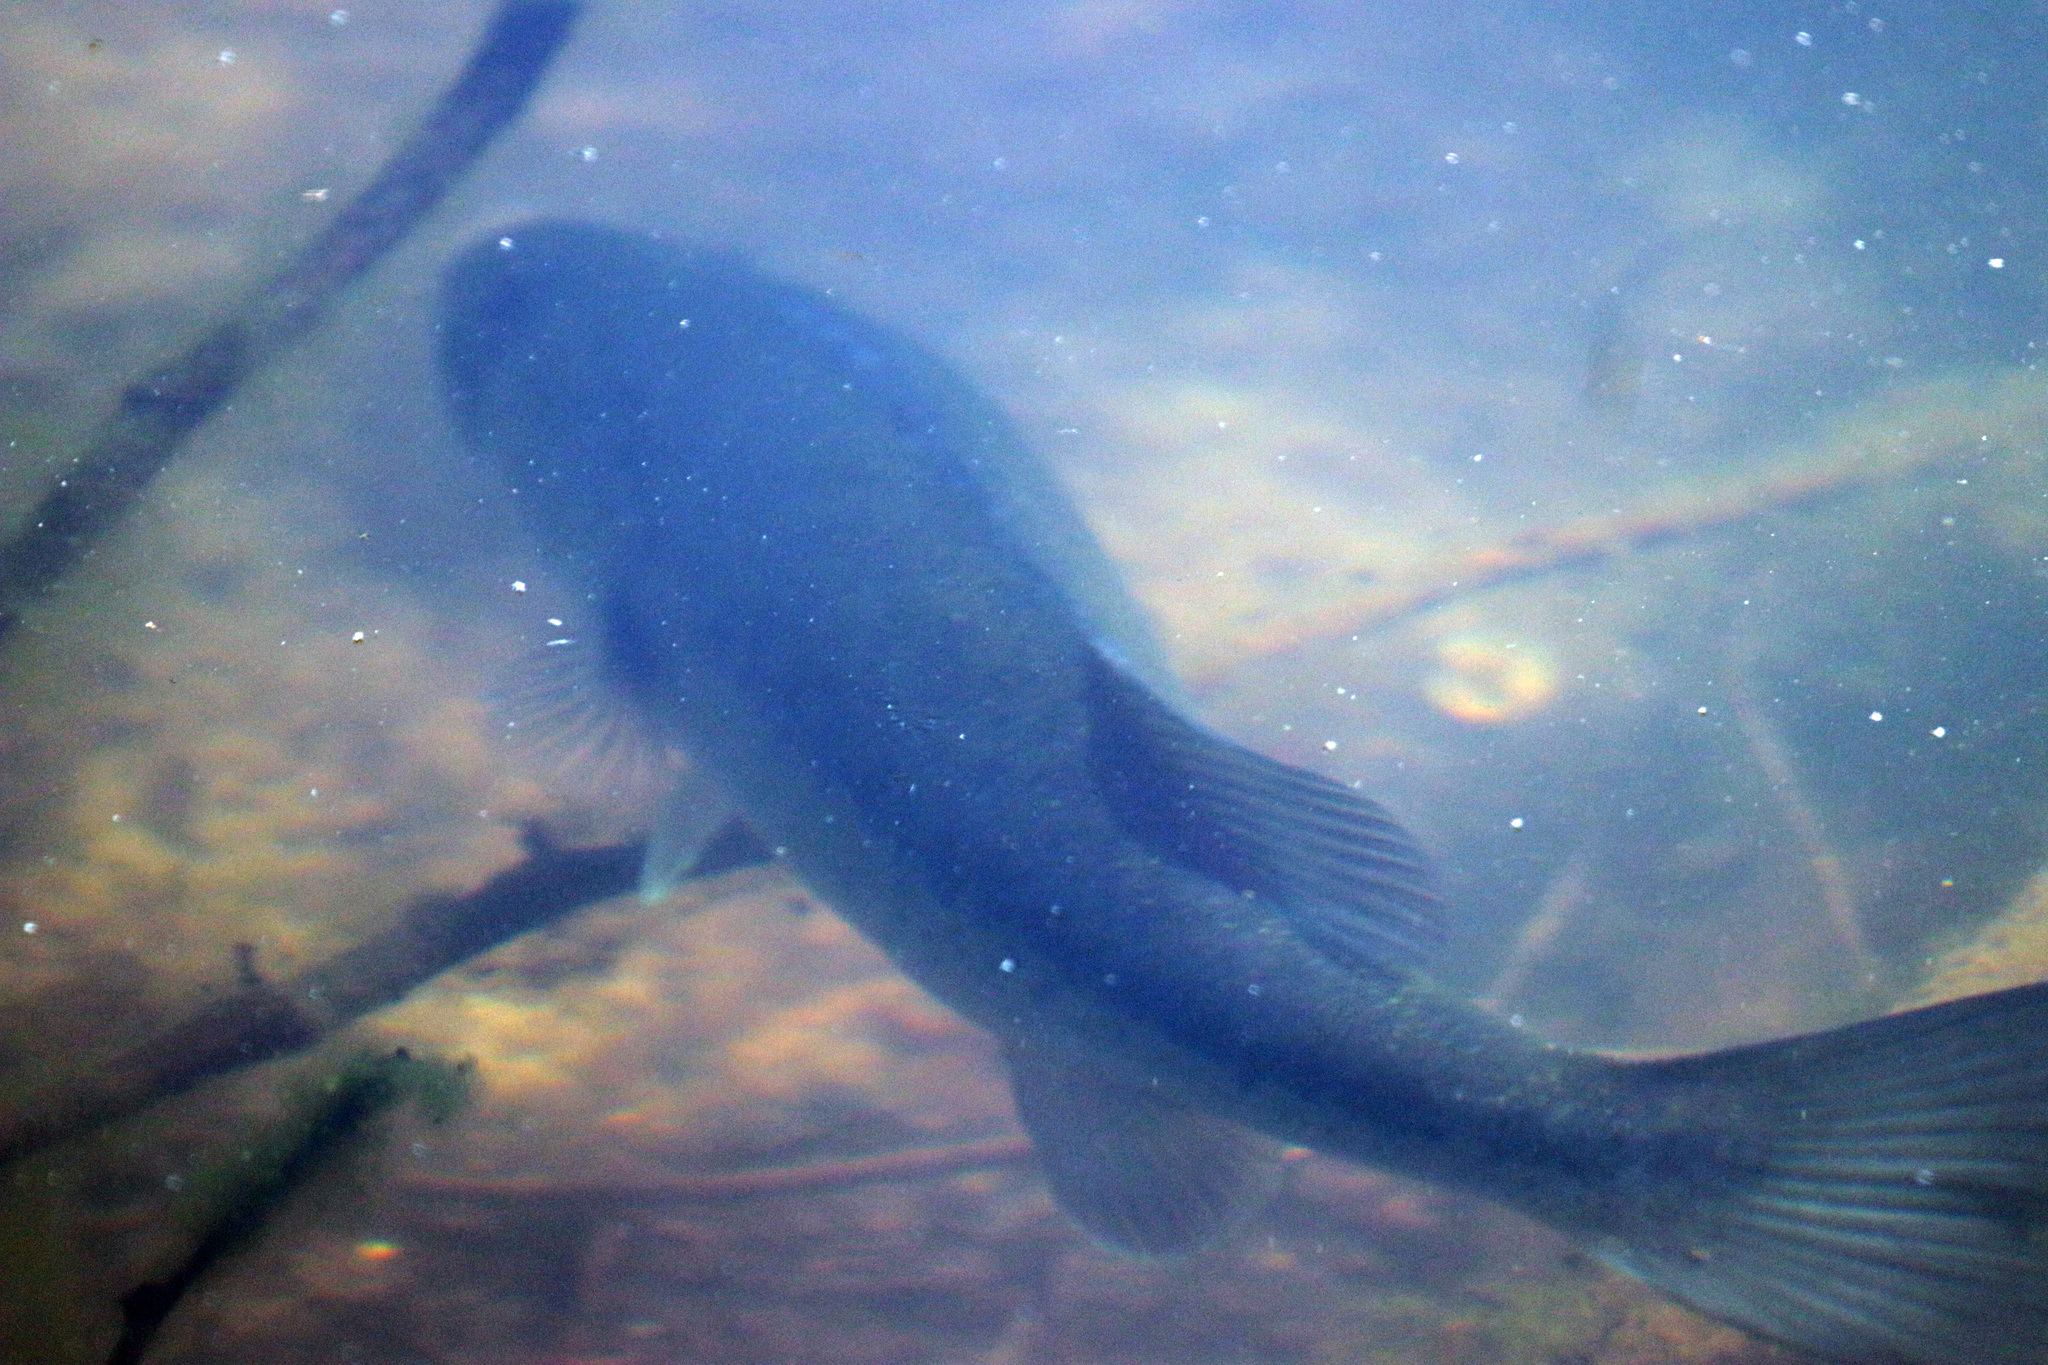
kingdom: Animalia
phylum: Chordata
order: Perciformes
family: Centrarchidae
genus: Micropterus
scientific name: Micropterus
